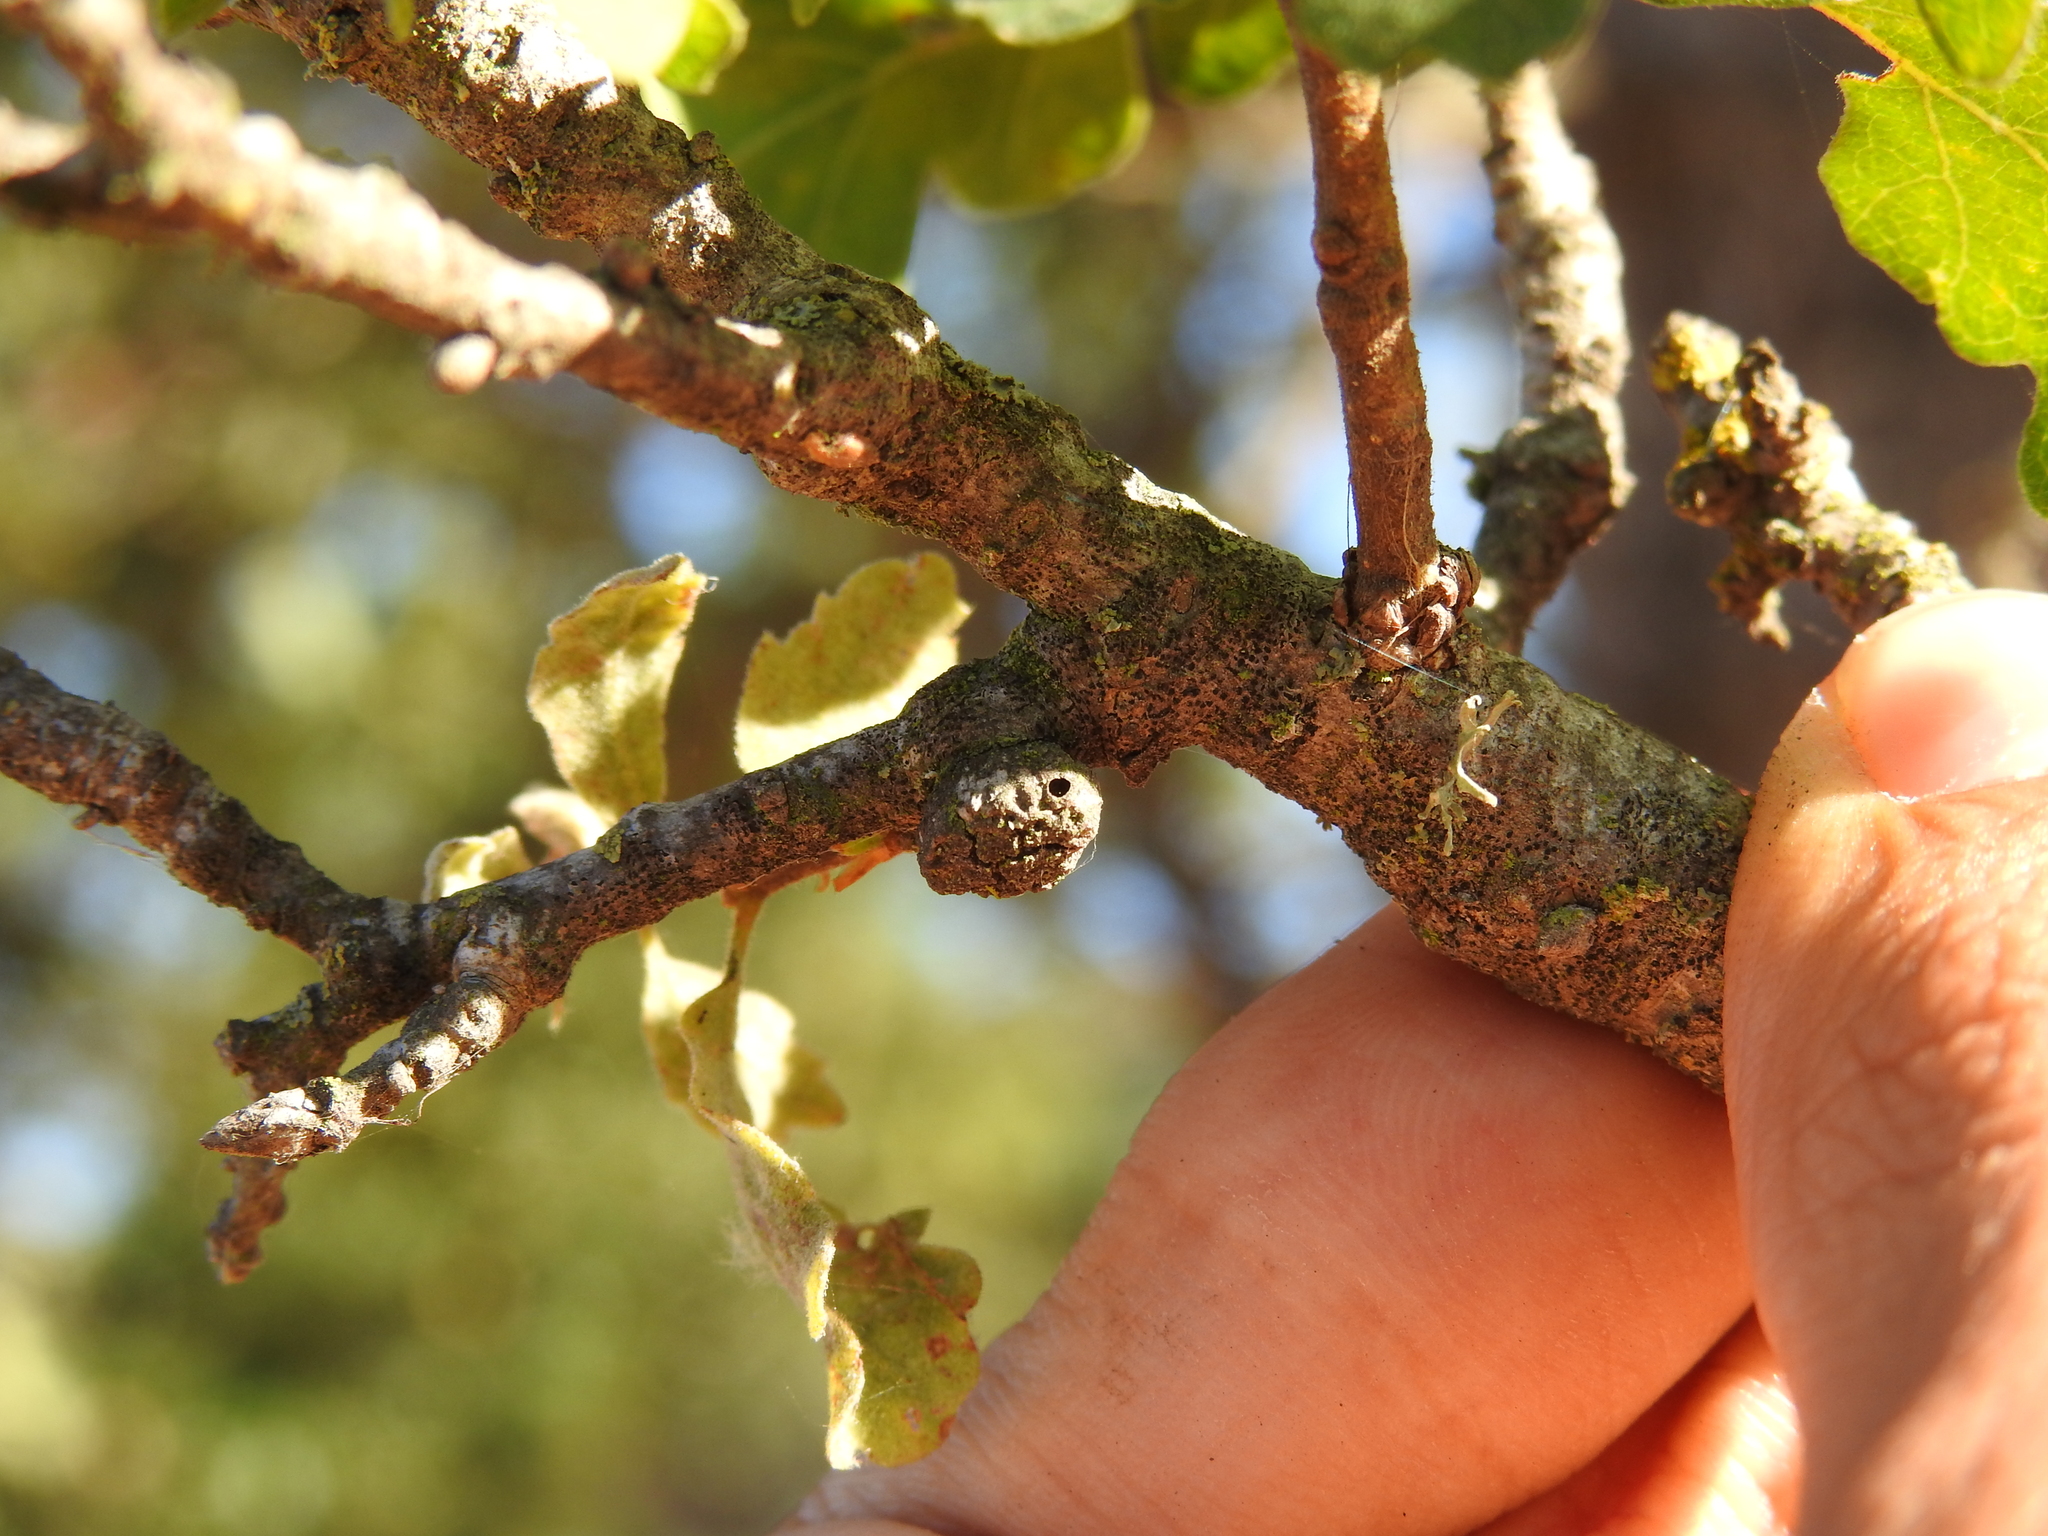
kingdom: Animalia
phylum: Arthropoda
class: Insecta
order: Hymenoptera
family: Cynipidae
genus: Disholcaspis
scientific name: Disholcaspis
